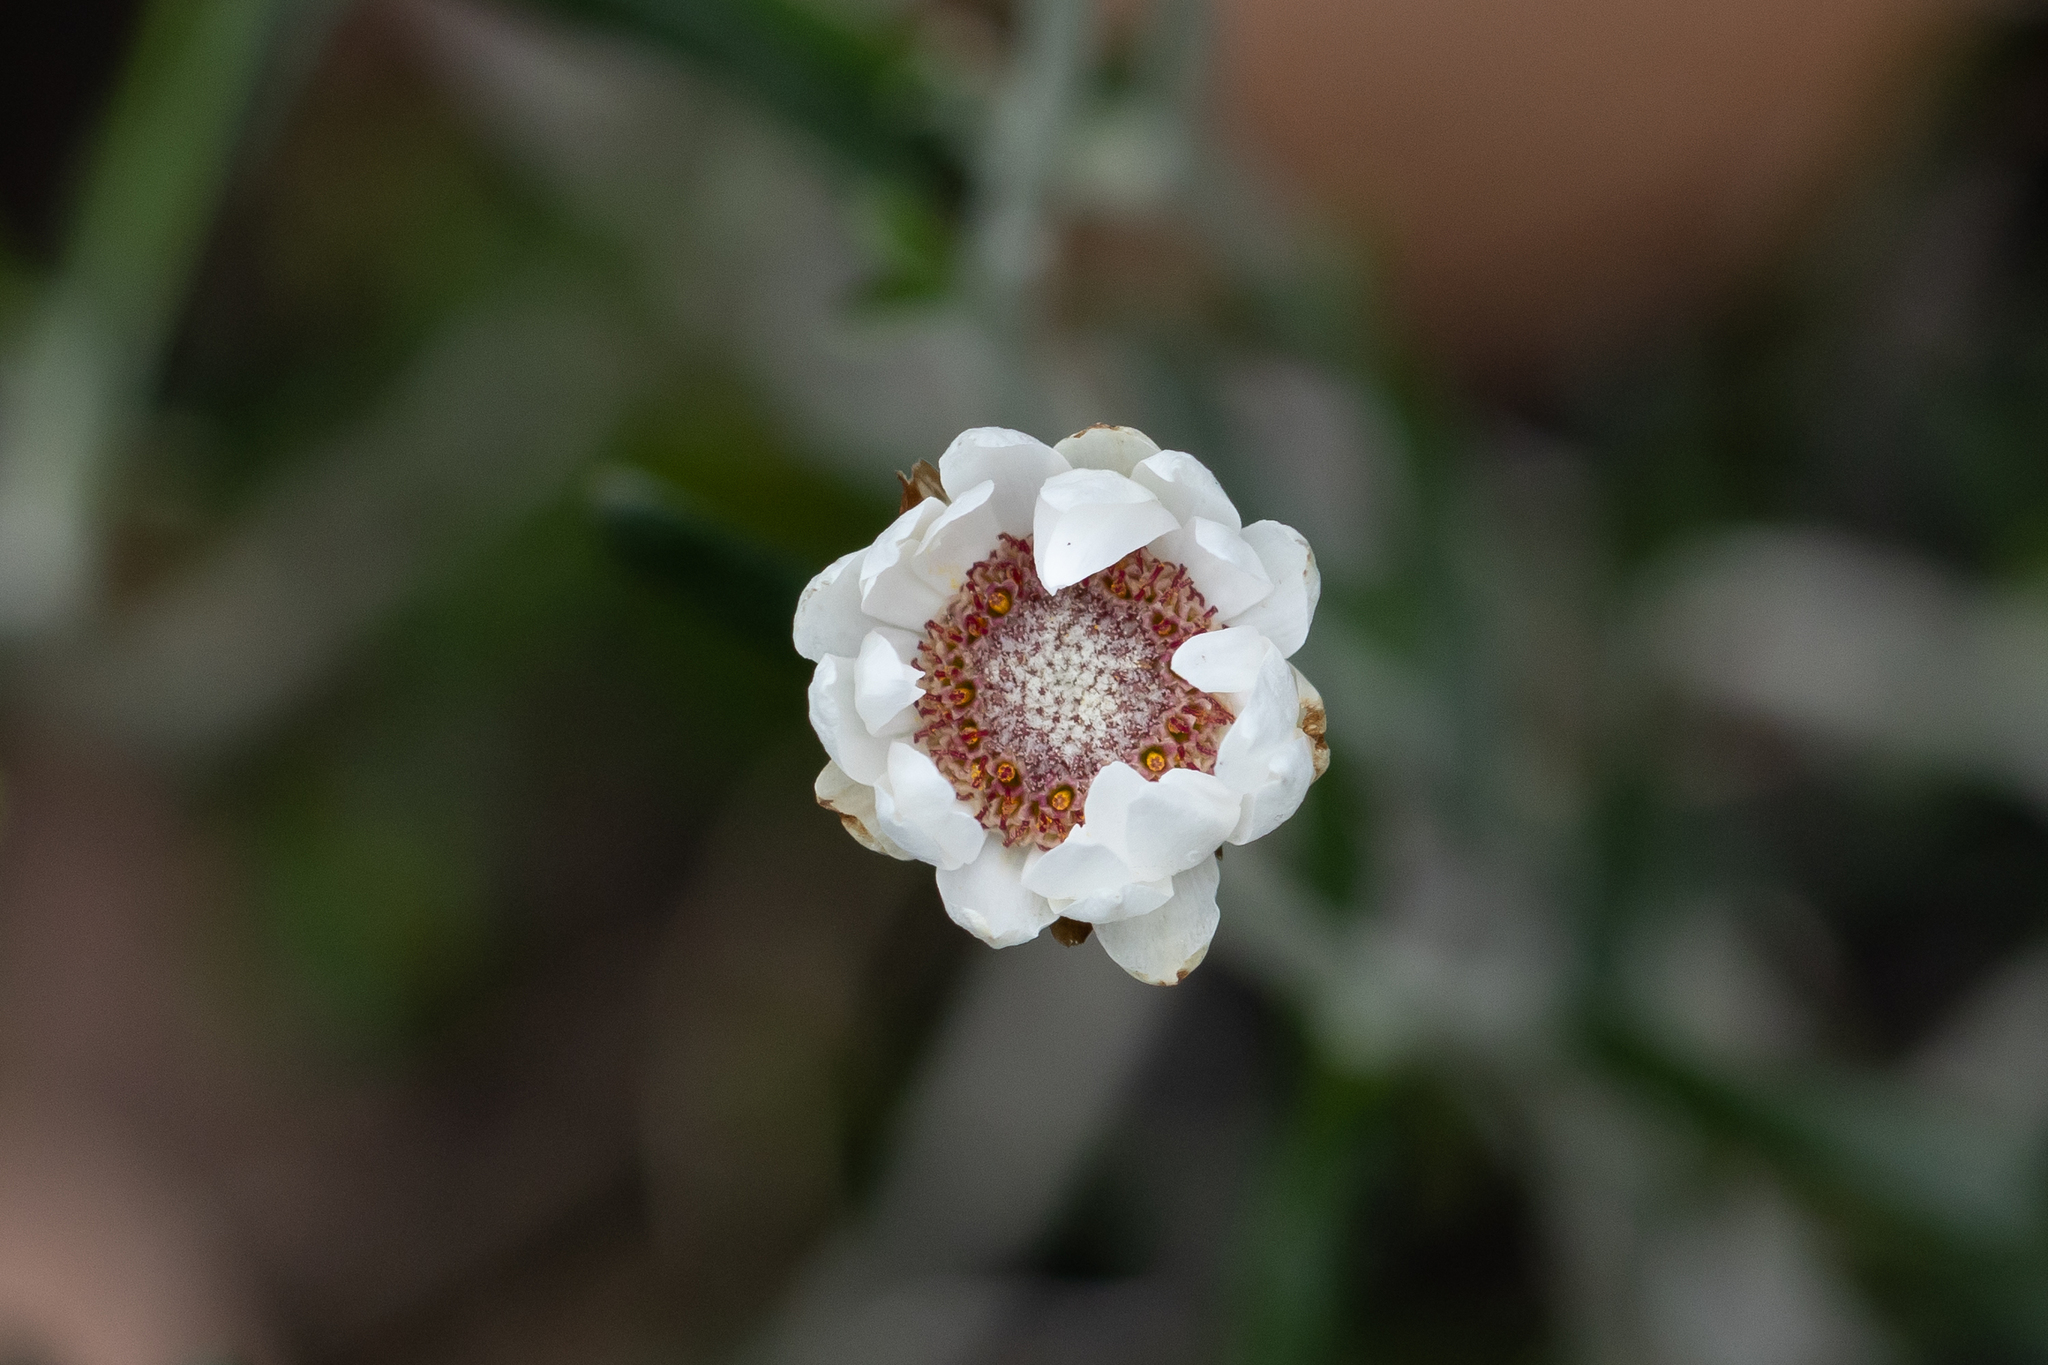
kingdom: Plantae
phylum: Tracheophyta
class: Magnoliopsida
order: Asterales
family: Asteraceae
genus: Argentipallium
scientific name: Argentipallium obtusifolium
